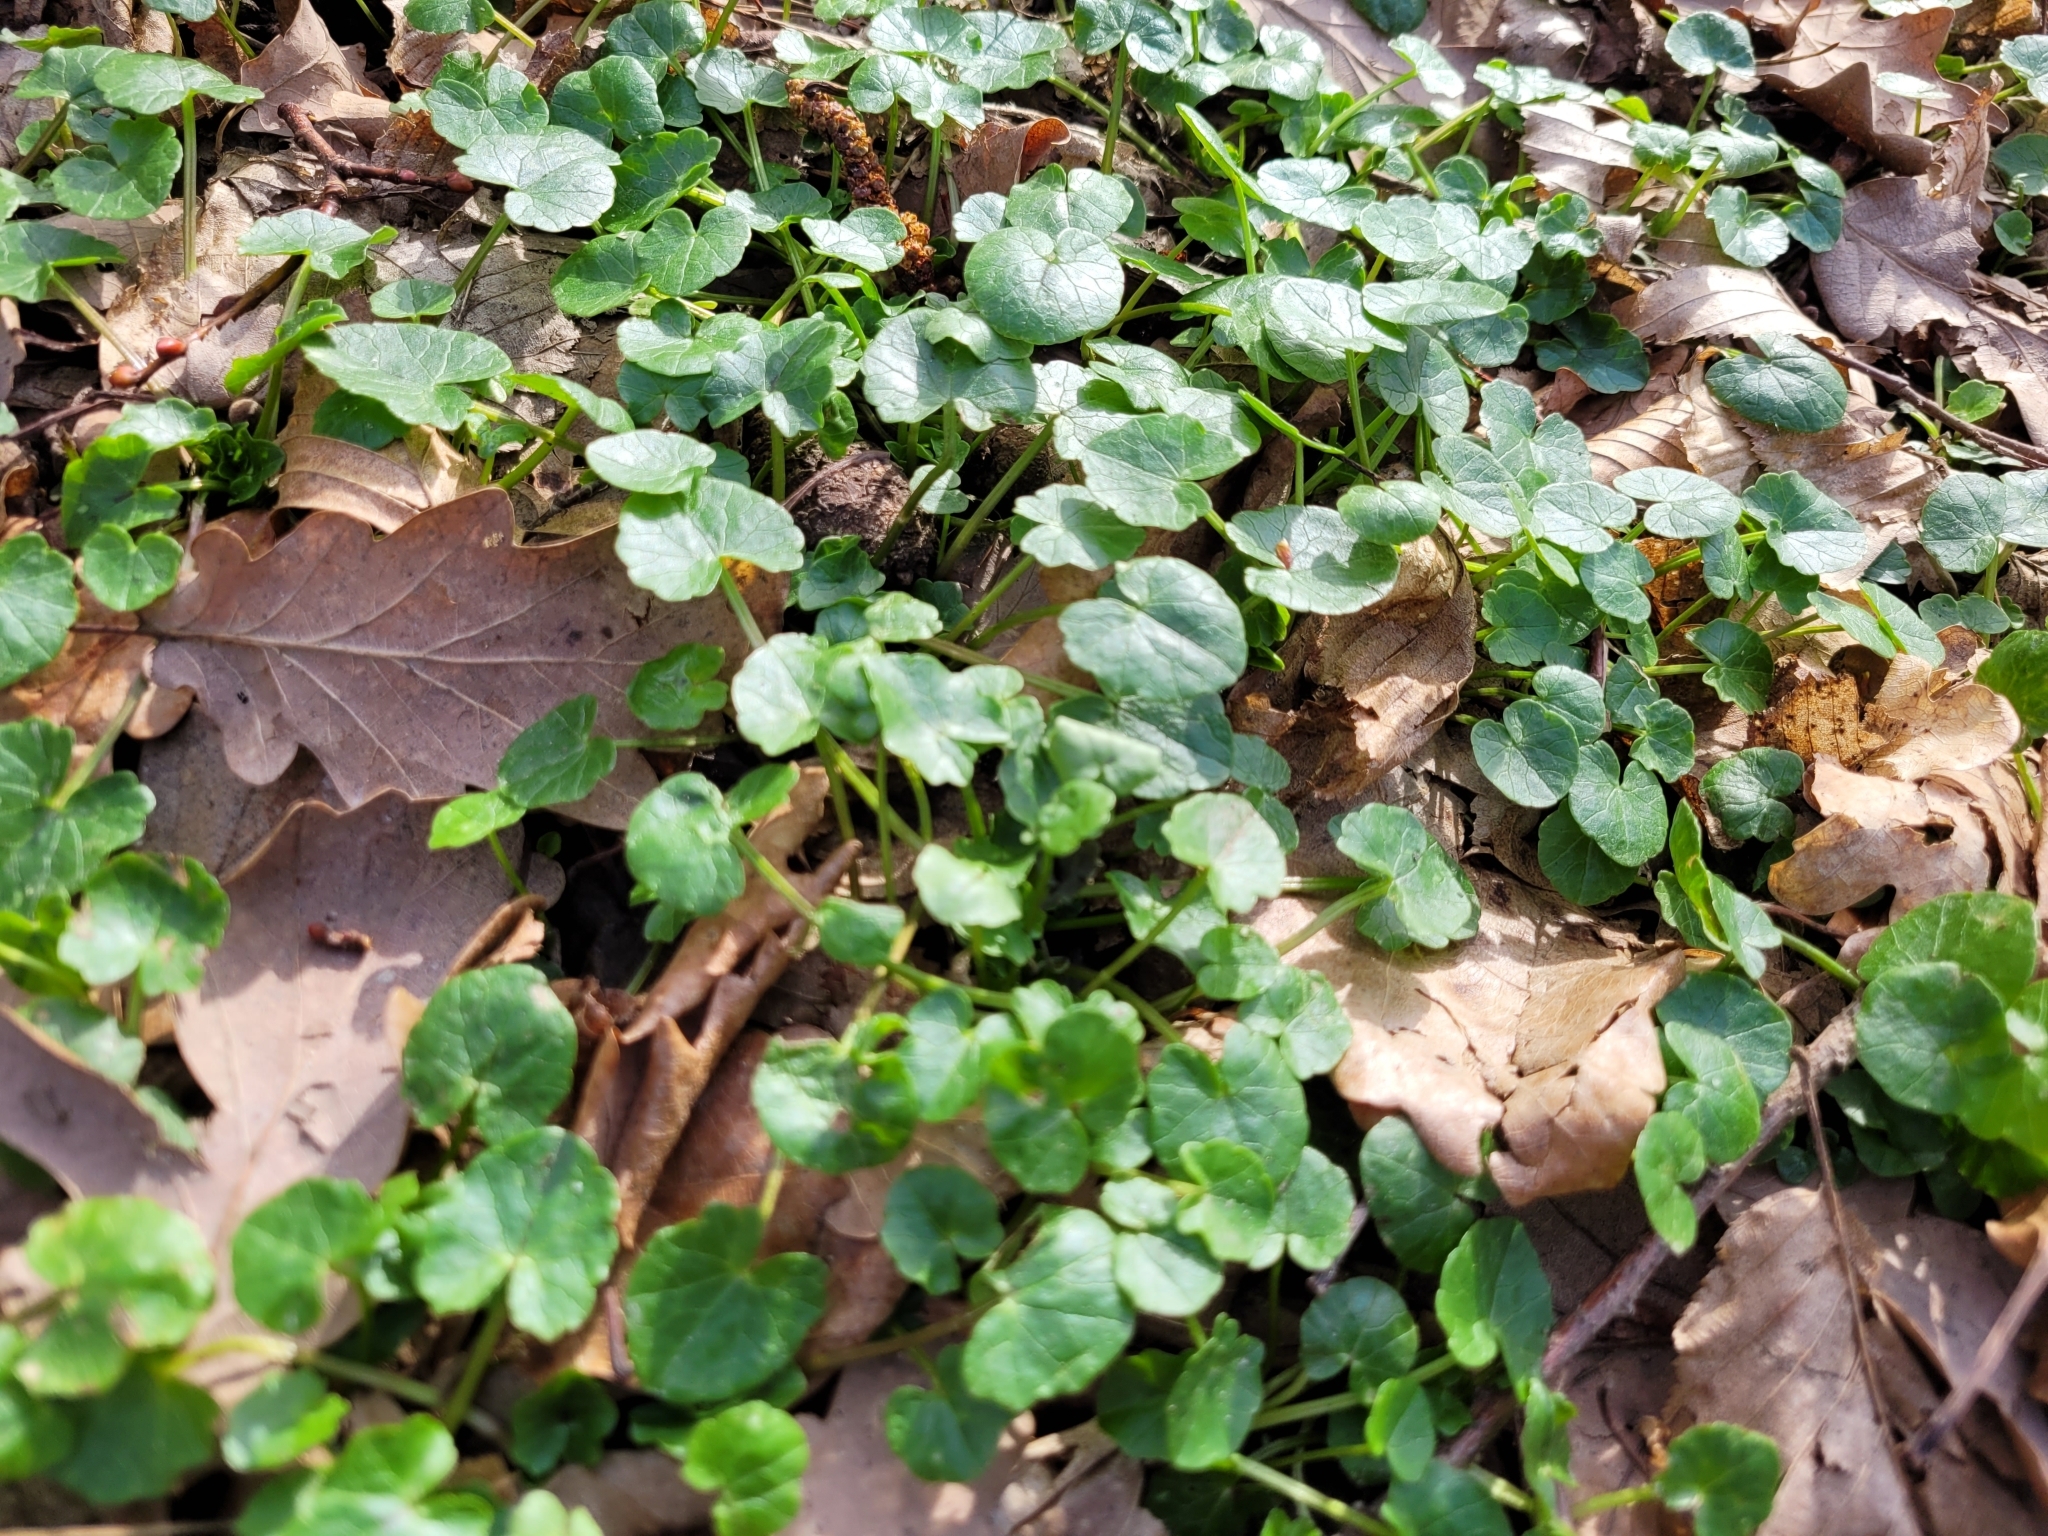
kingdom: Plantae
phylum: Tracheophyta
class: Magnoliopsida
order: Ranunculales
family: Ranunculaceae
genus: Ficaria
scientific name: Ficaria verna
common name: Lesser celandine
